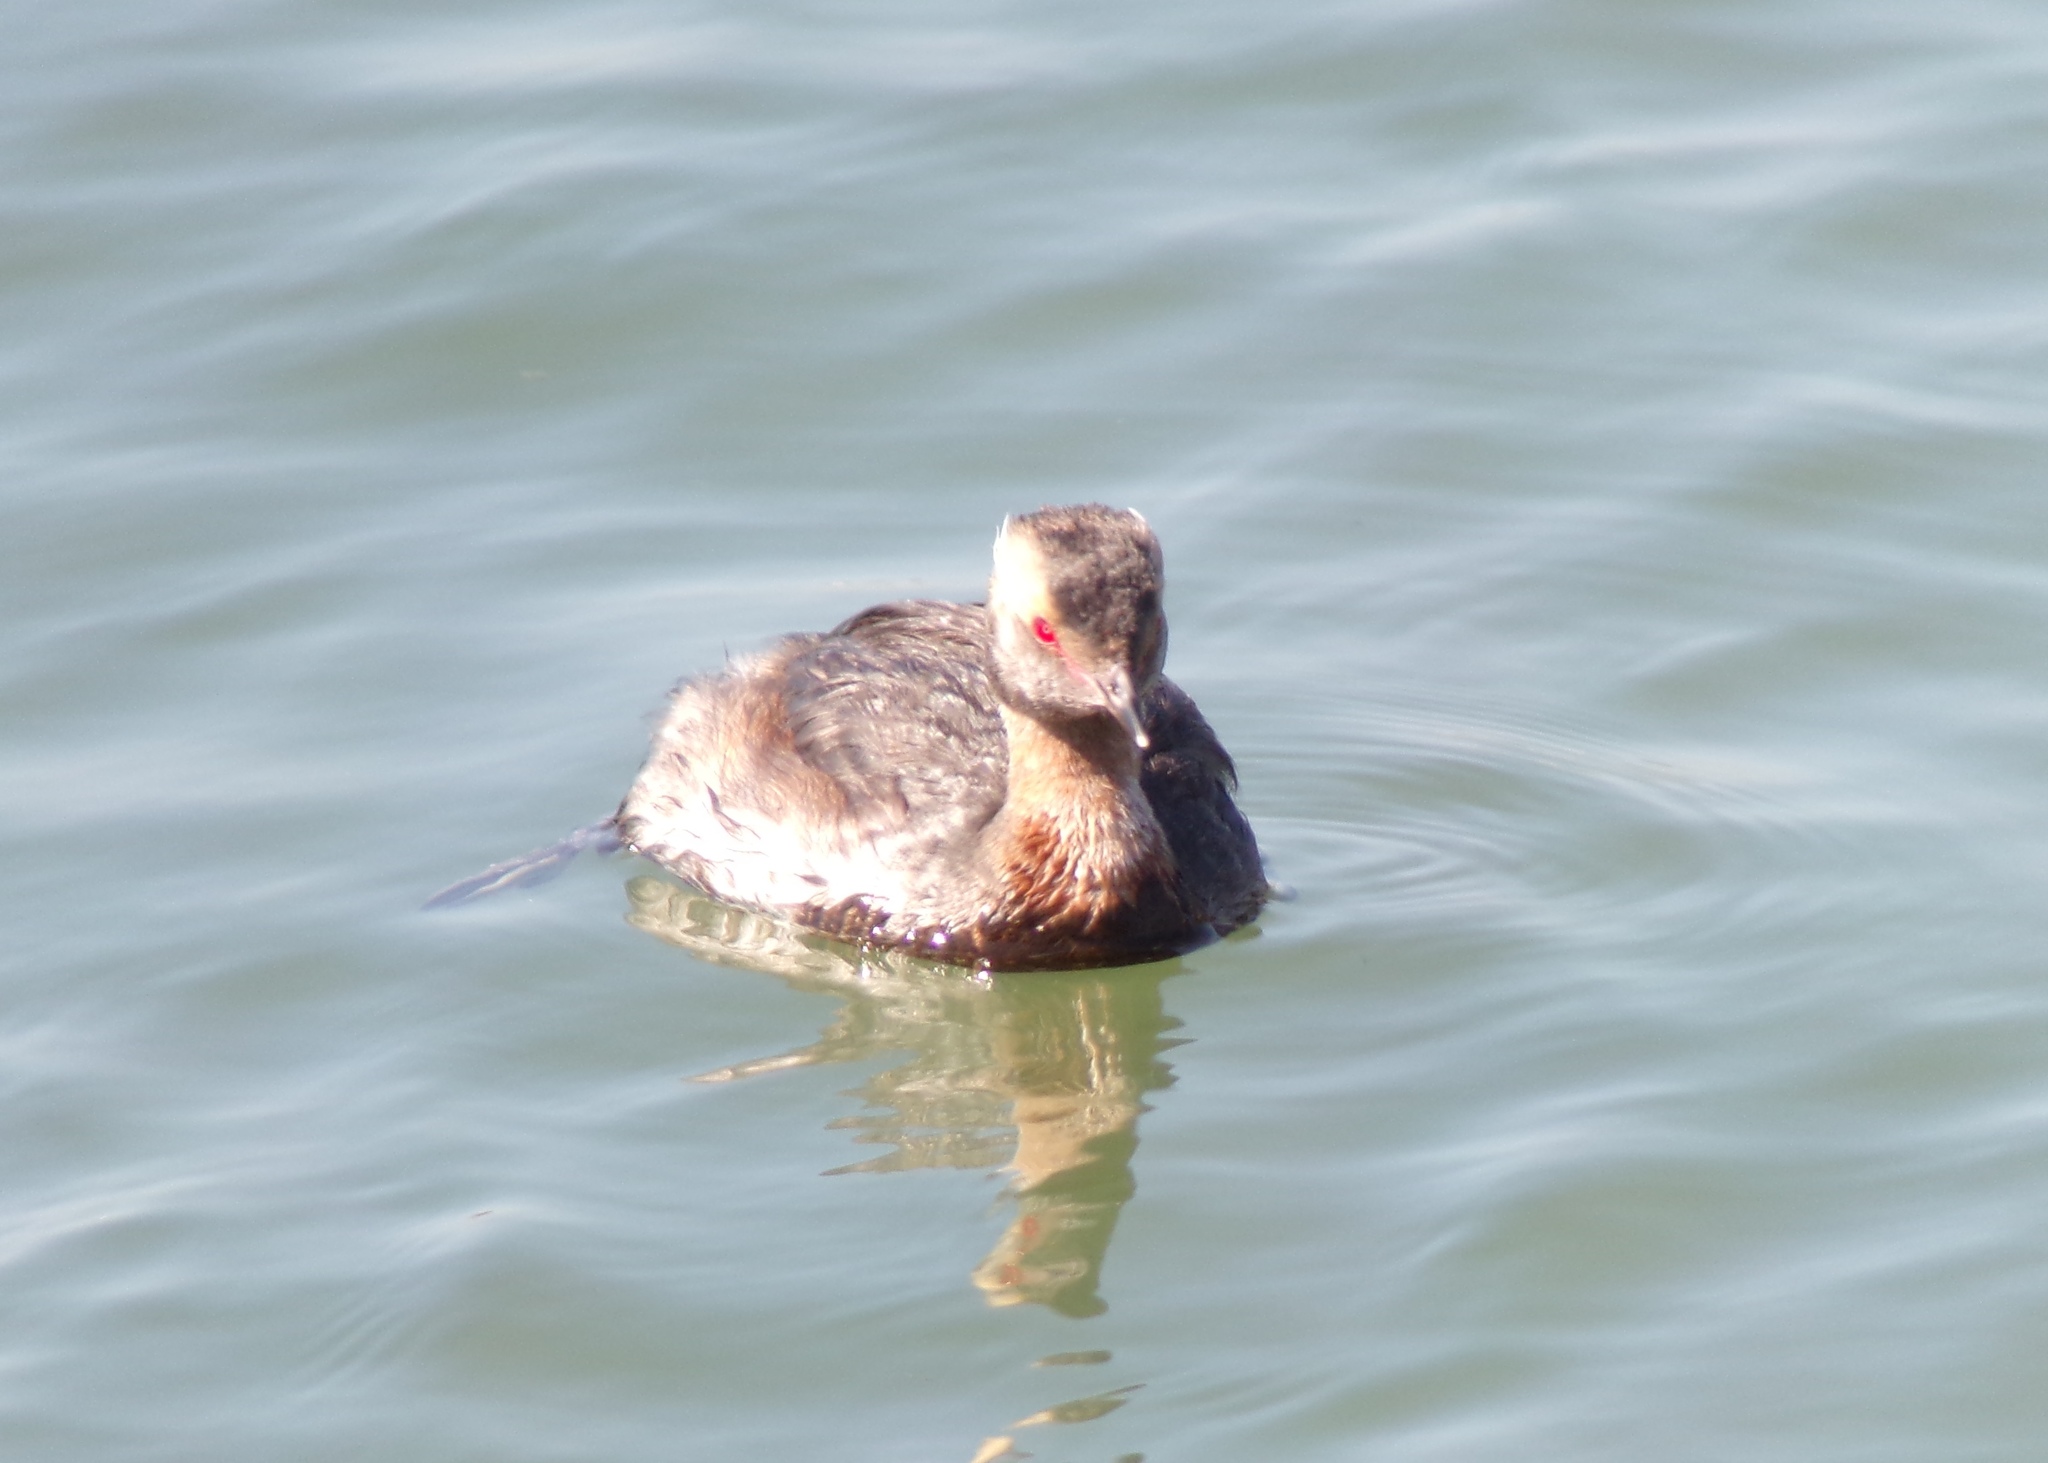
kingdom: Animalia
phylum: Chordata
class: Aves
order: Podicipediformes
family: Podicipedidae
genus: Podiceps
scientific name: Podiceps auritus
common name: Horned grebe
